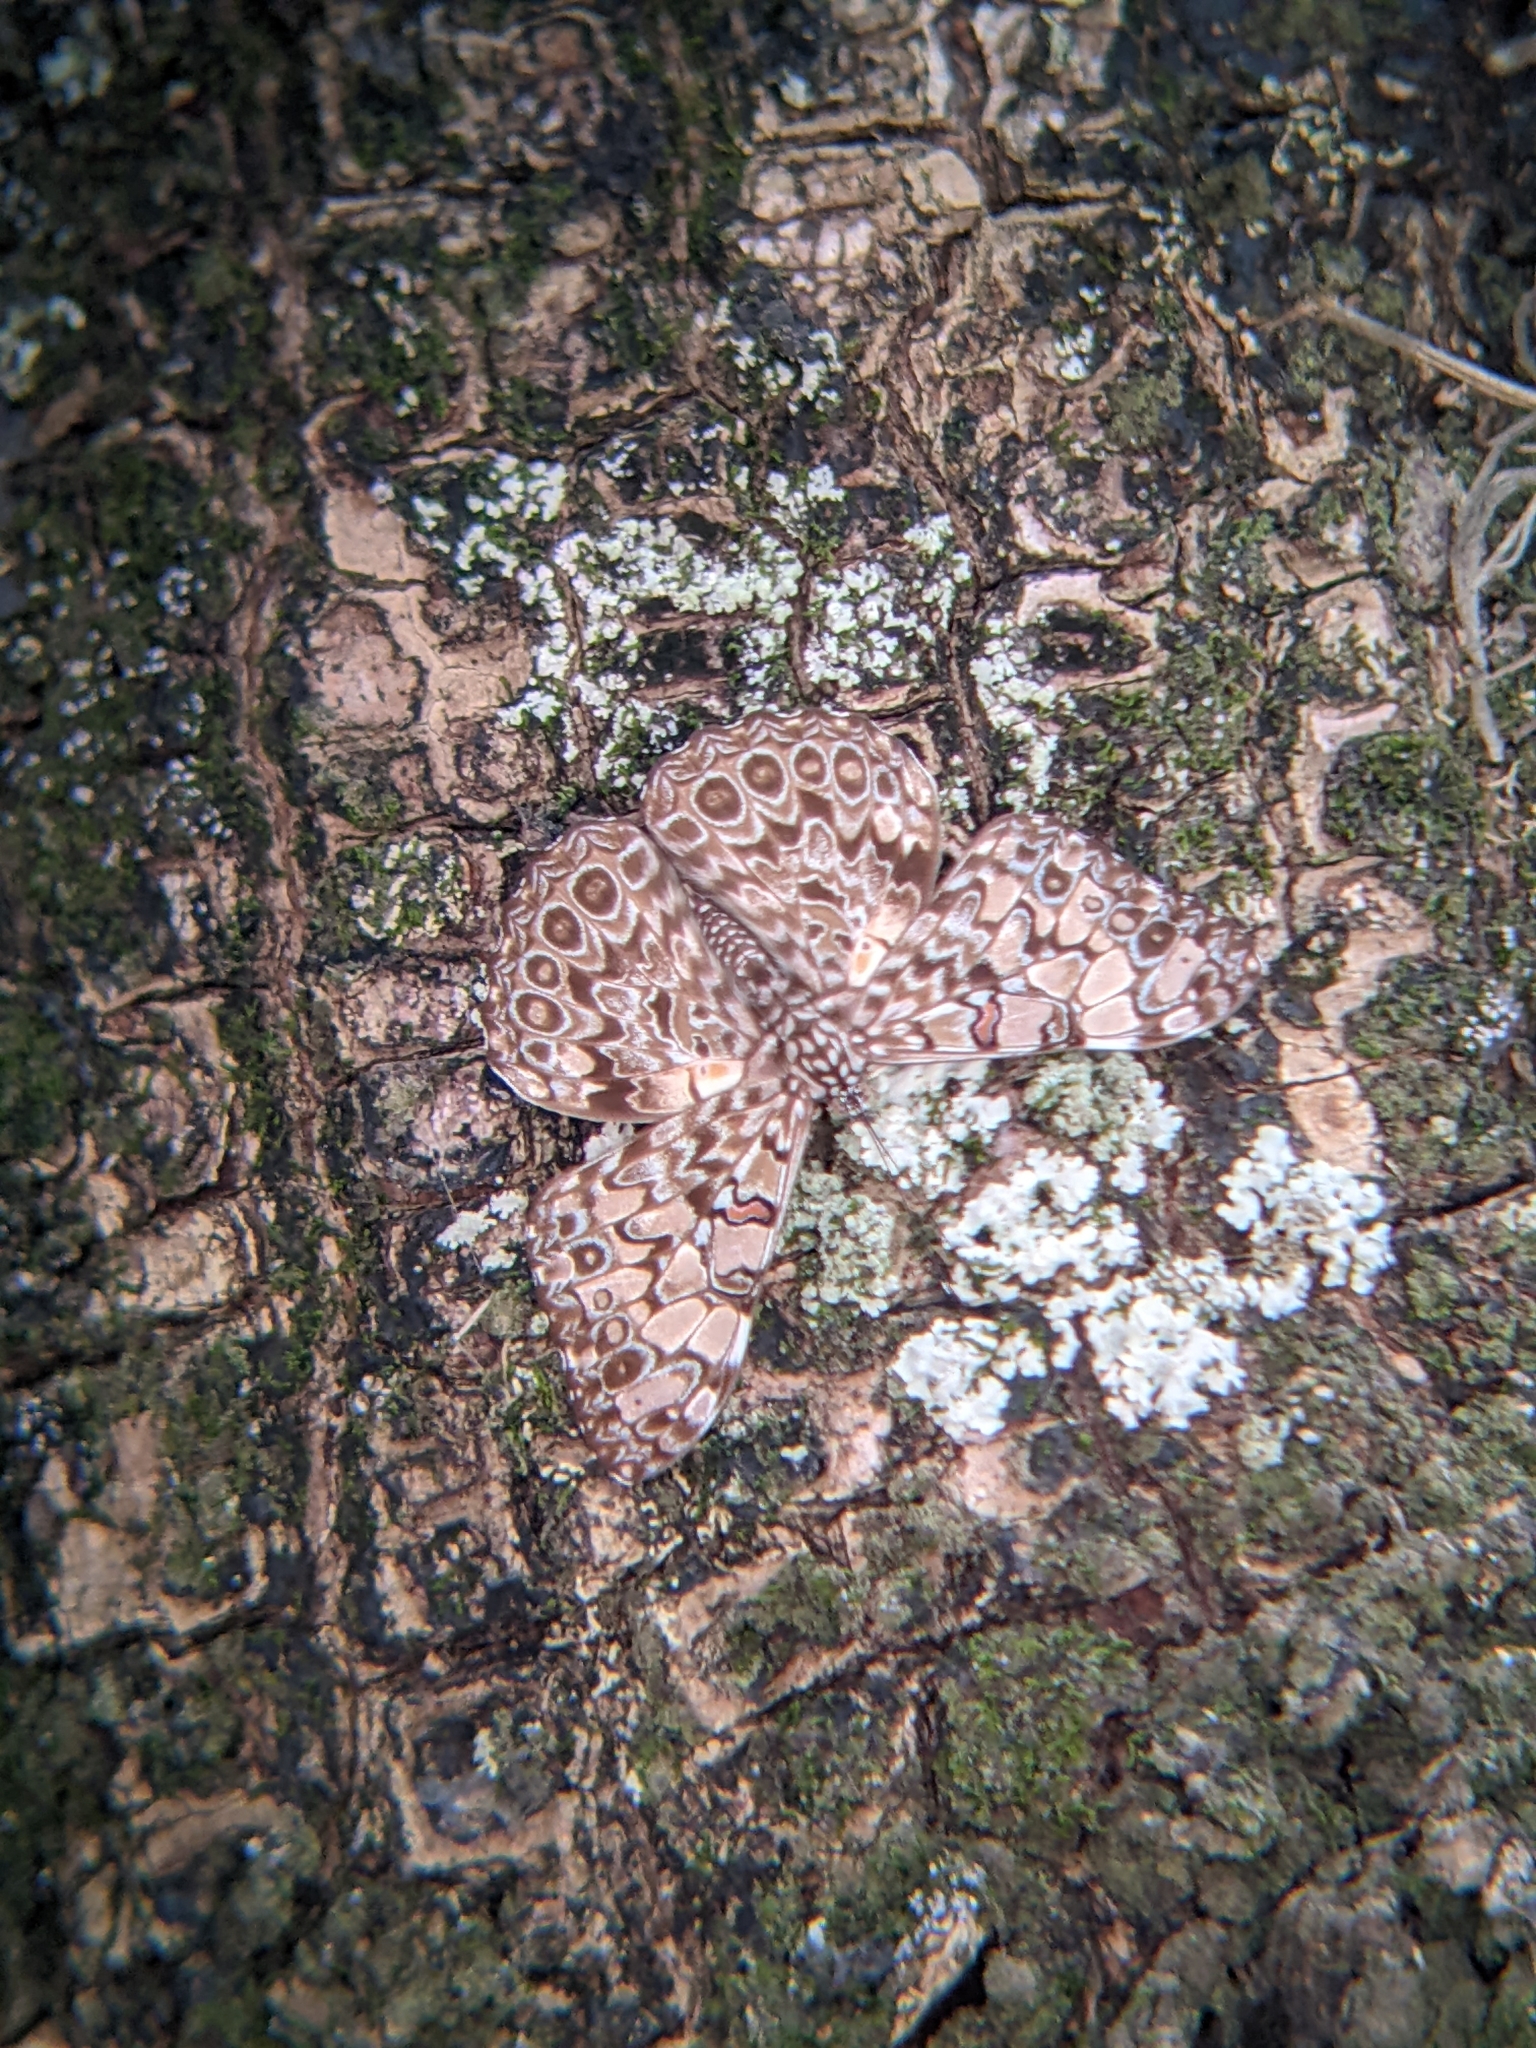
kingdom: Animalia
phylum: Arthropoda
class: Insecta
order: Lepidoptera
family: Nymphalidae
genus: Hamadryas
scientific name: Hamadryas feronia
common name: Variable cracker
